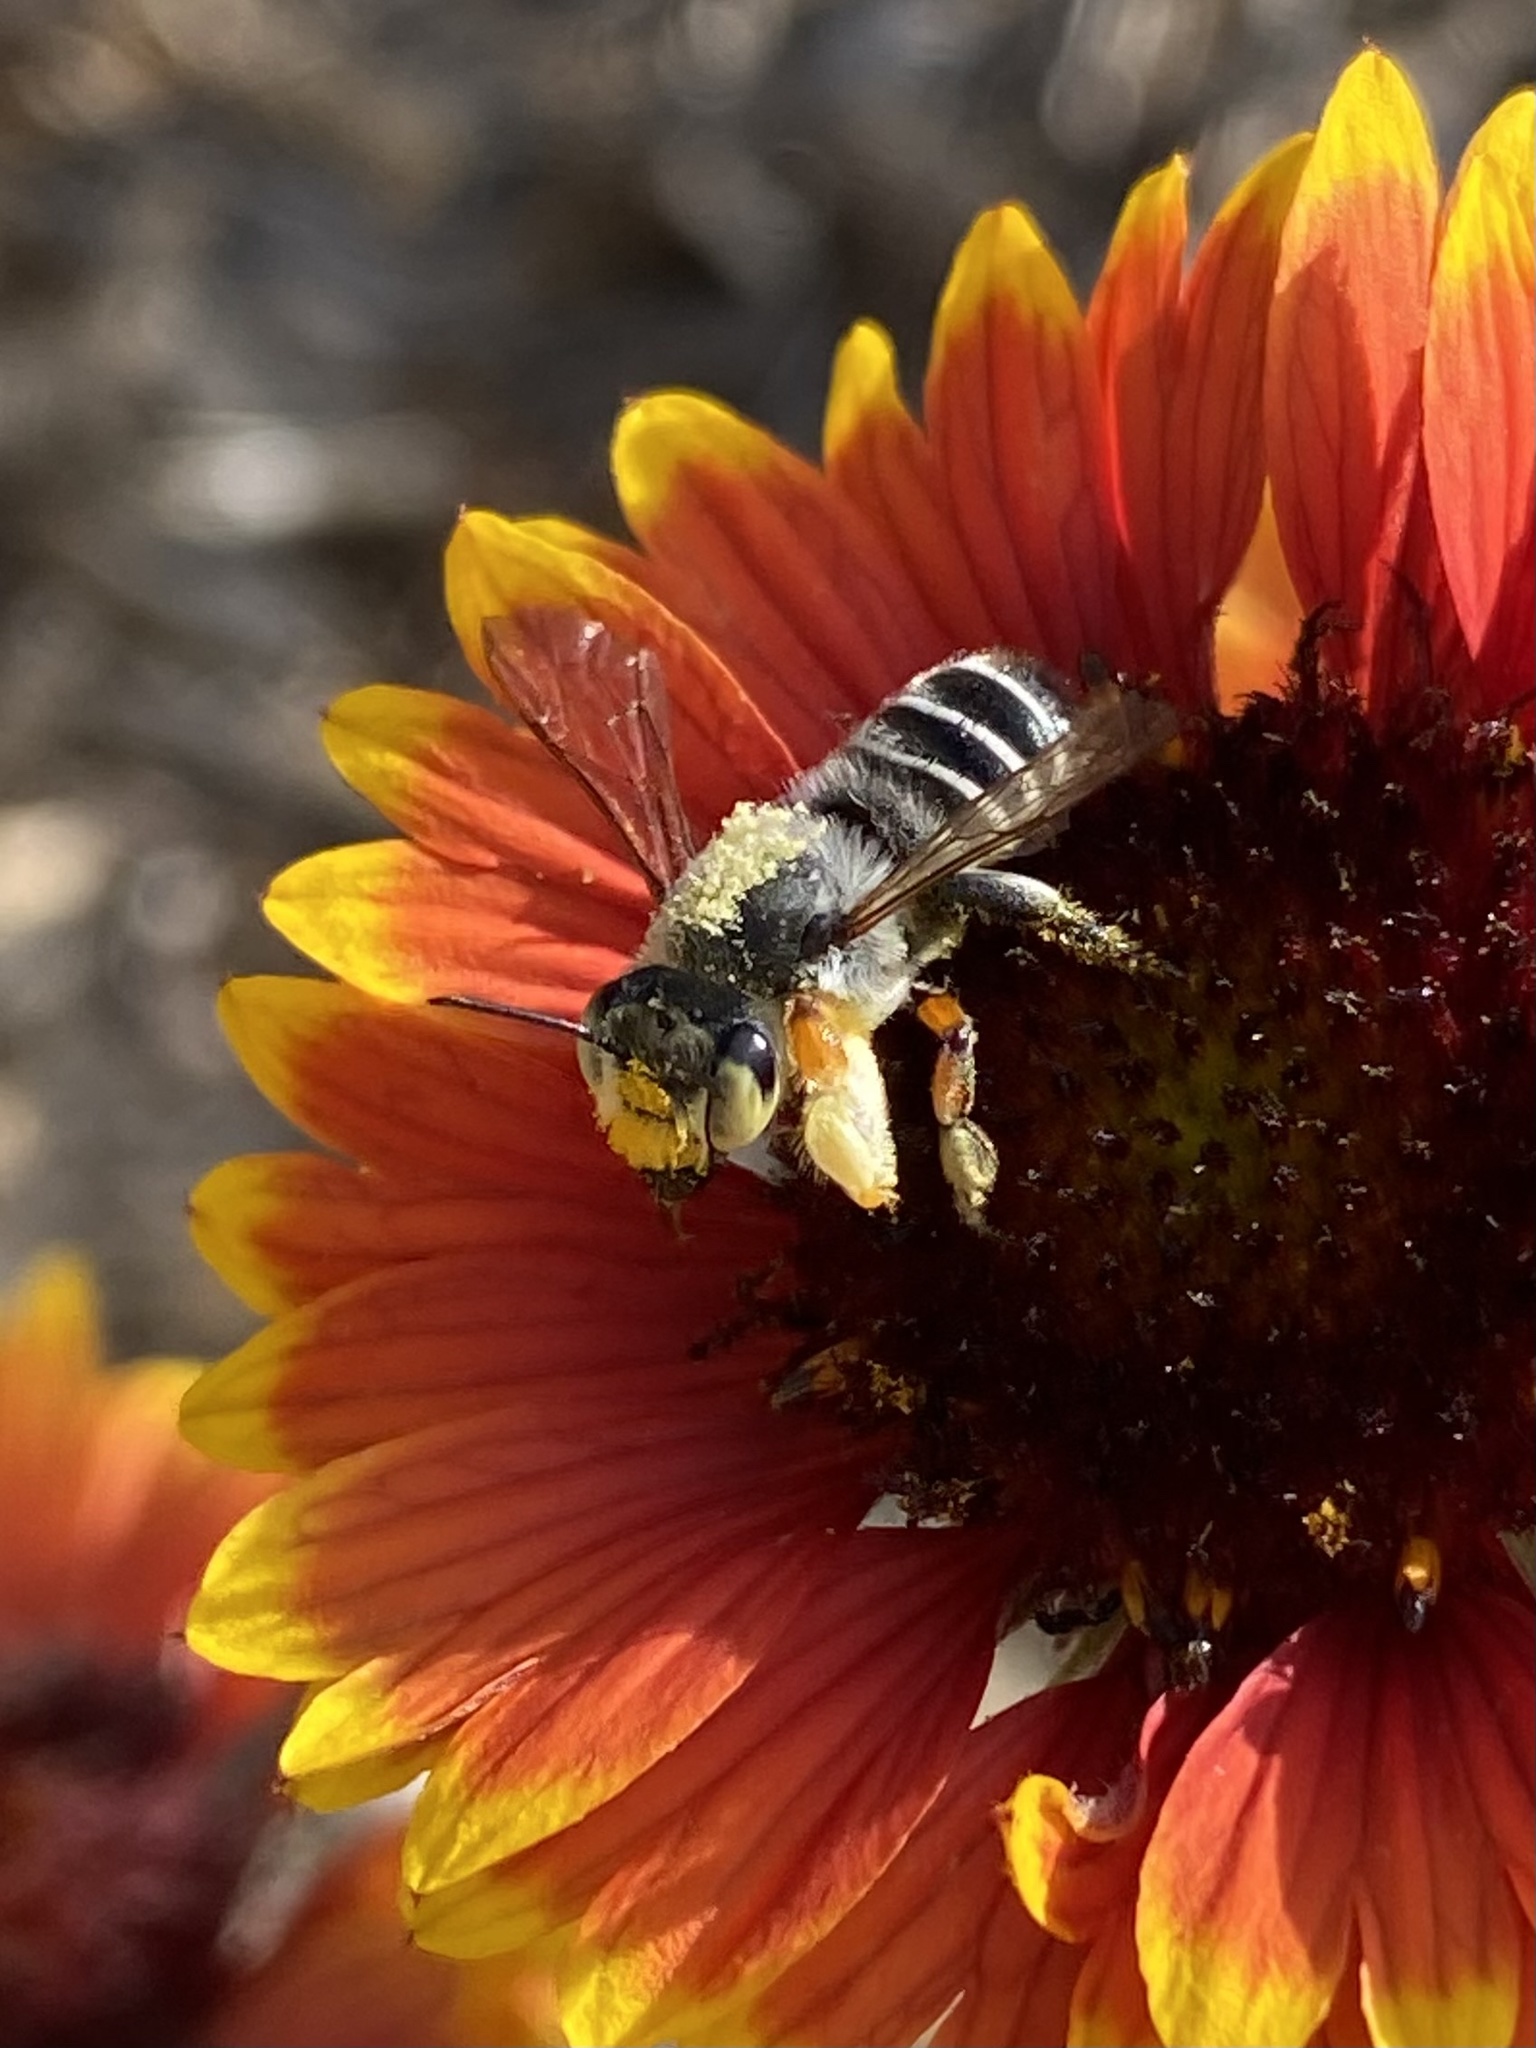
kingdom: Animalia
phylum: Arthropoda
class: Insecta
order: Hymenoptera
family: Megachilidae
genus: Megachile
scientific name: Megachile policaris
